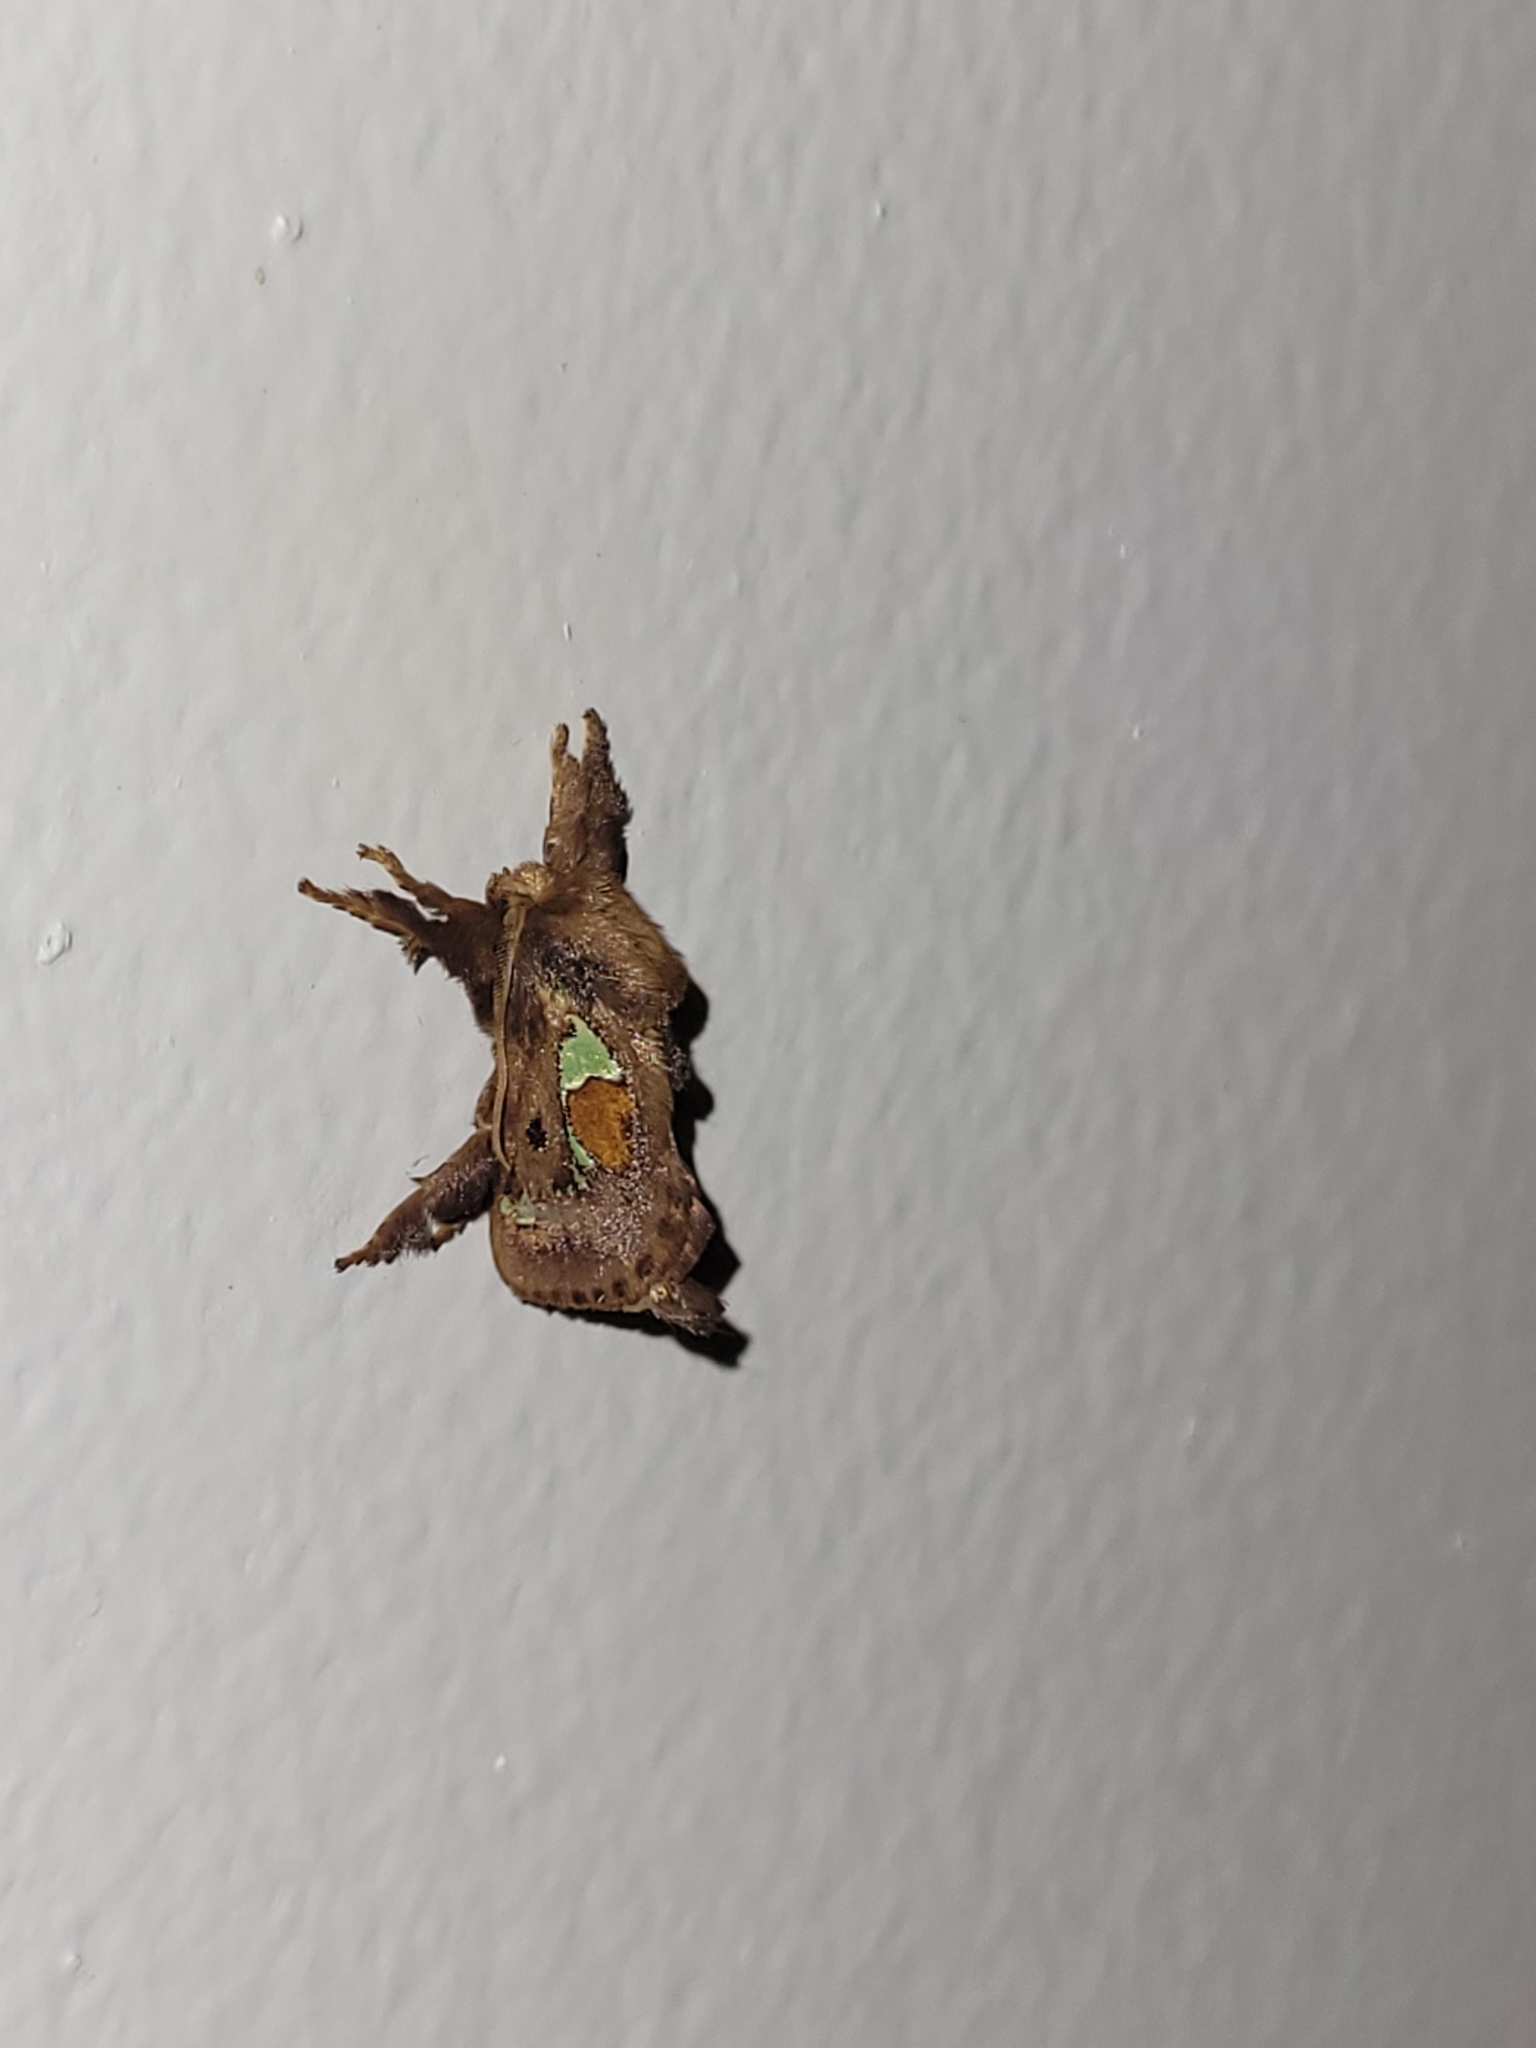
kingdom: Animalia
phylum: Arthropoda
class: Insecta
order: Lepidoptera
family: Limacodidae
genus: Euclea
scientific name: Euclea delphinii
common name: Spiny oak-slug moth
